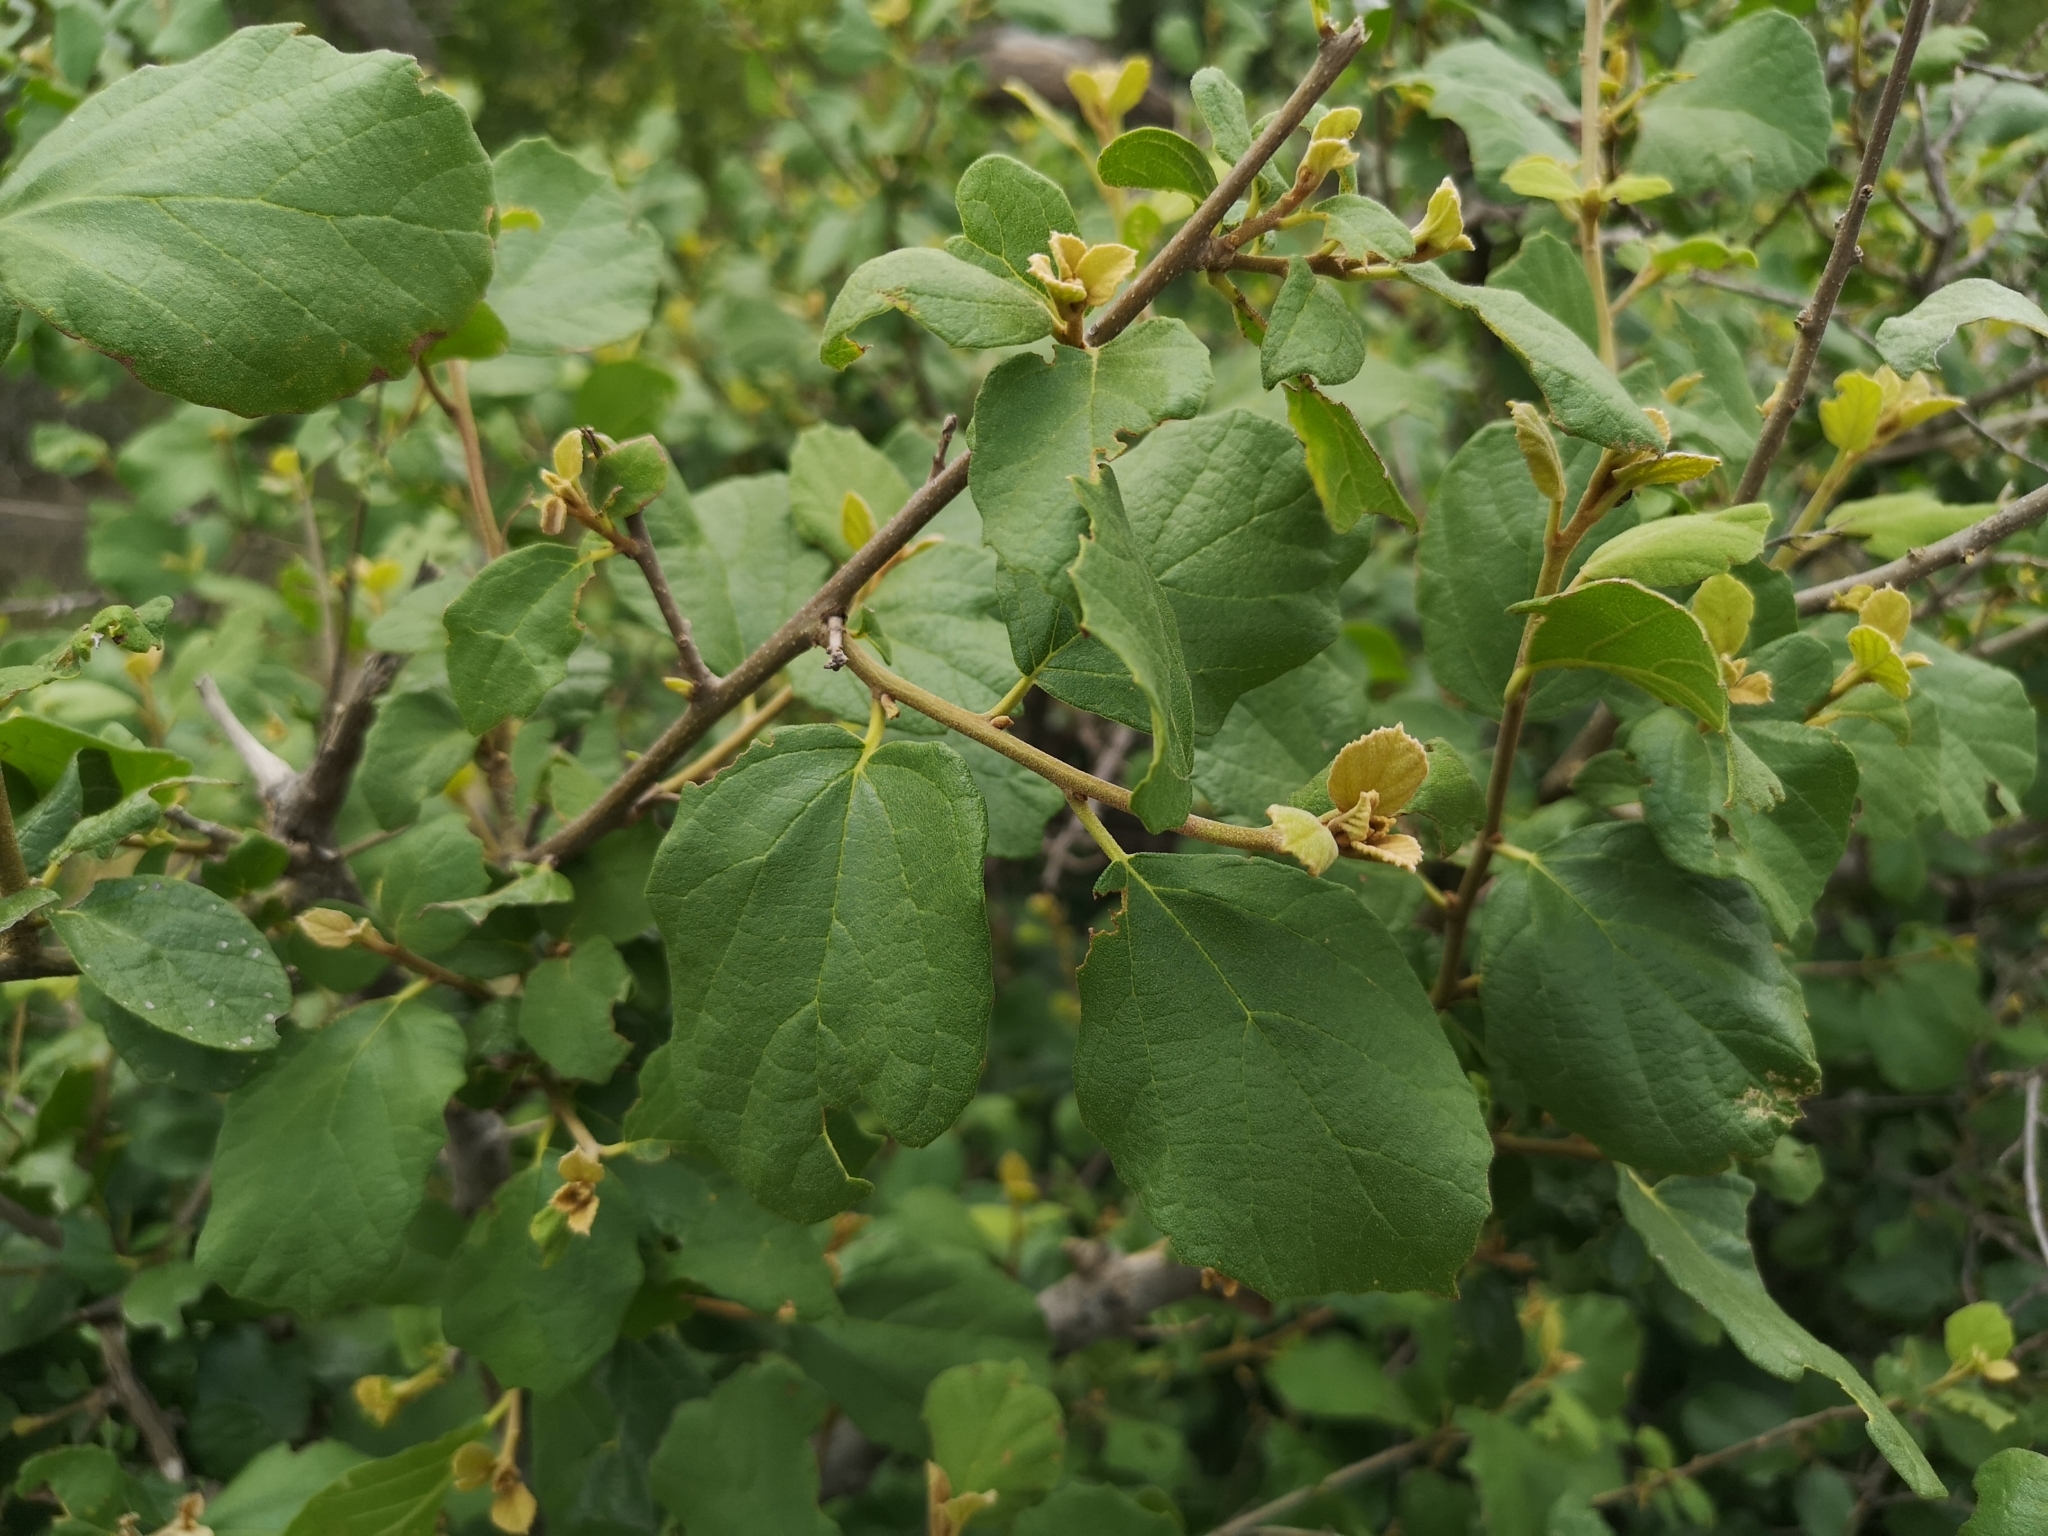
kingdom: Plantae
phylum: Tracheophyta
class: Magnoliopsida
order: Boraginales
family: Cordiaceae
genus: Cordia
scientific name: Cordia monoica
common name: Snot berry
